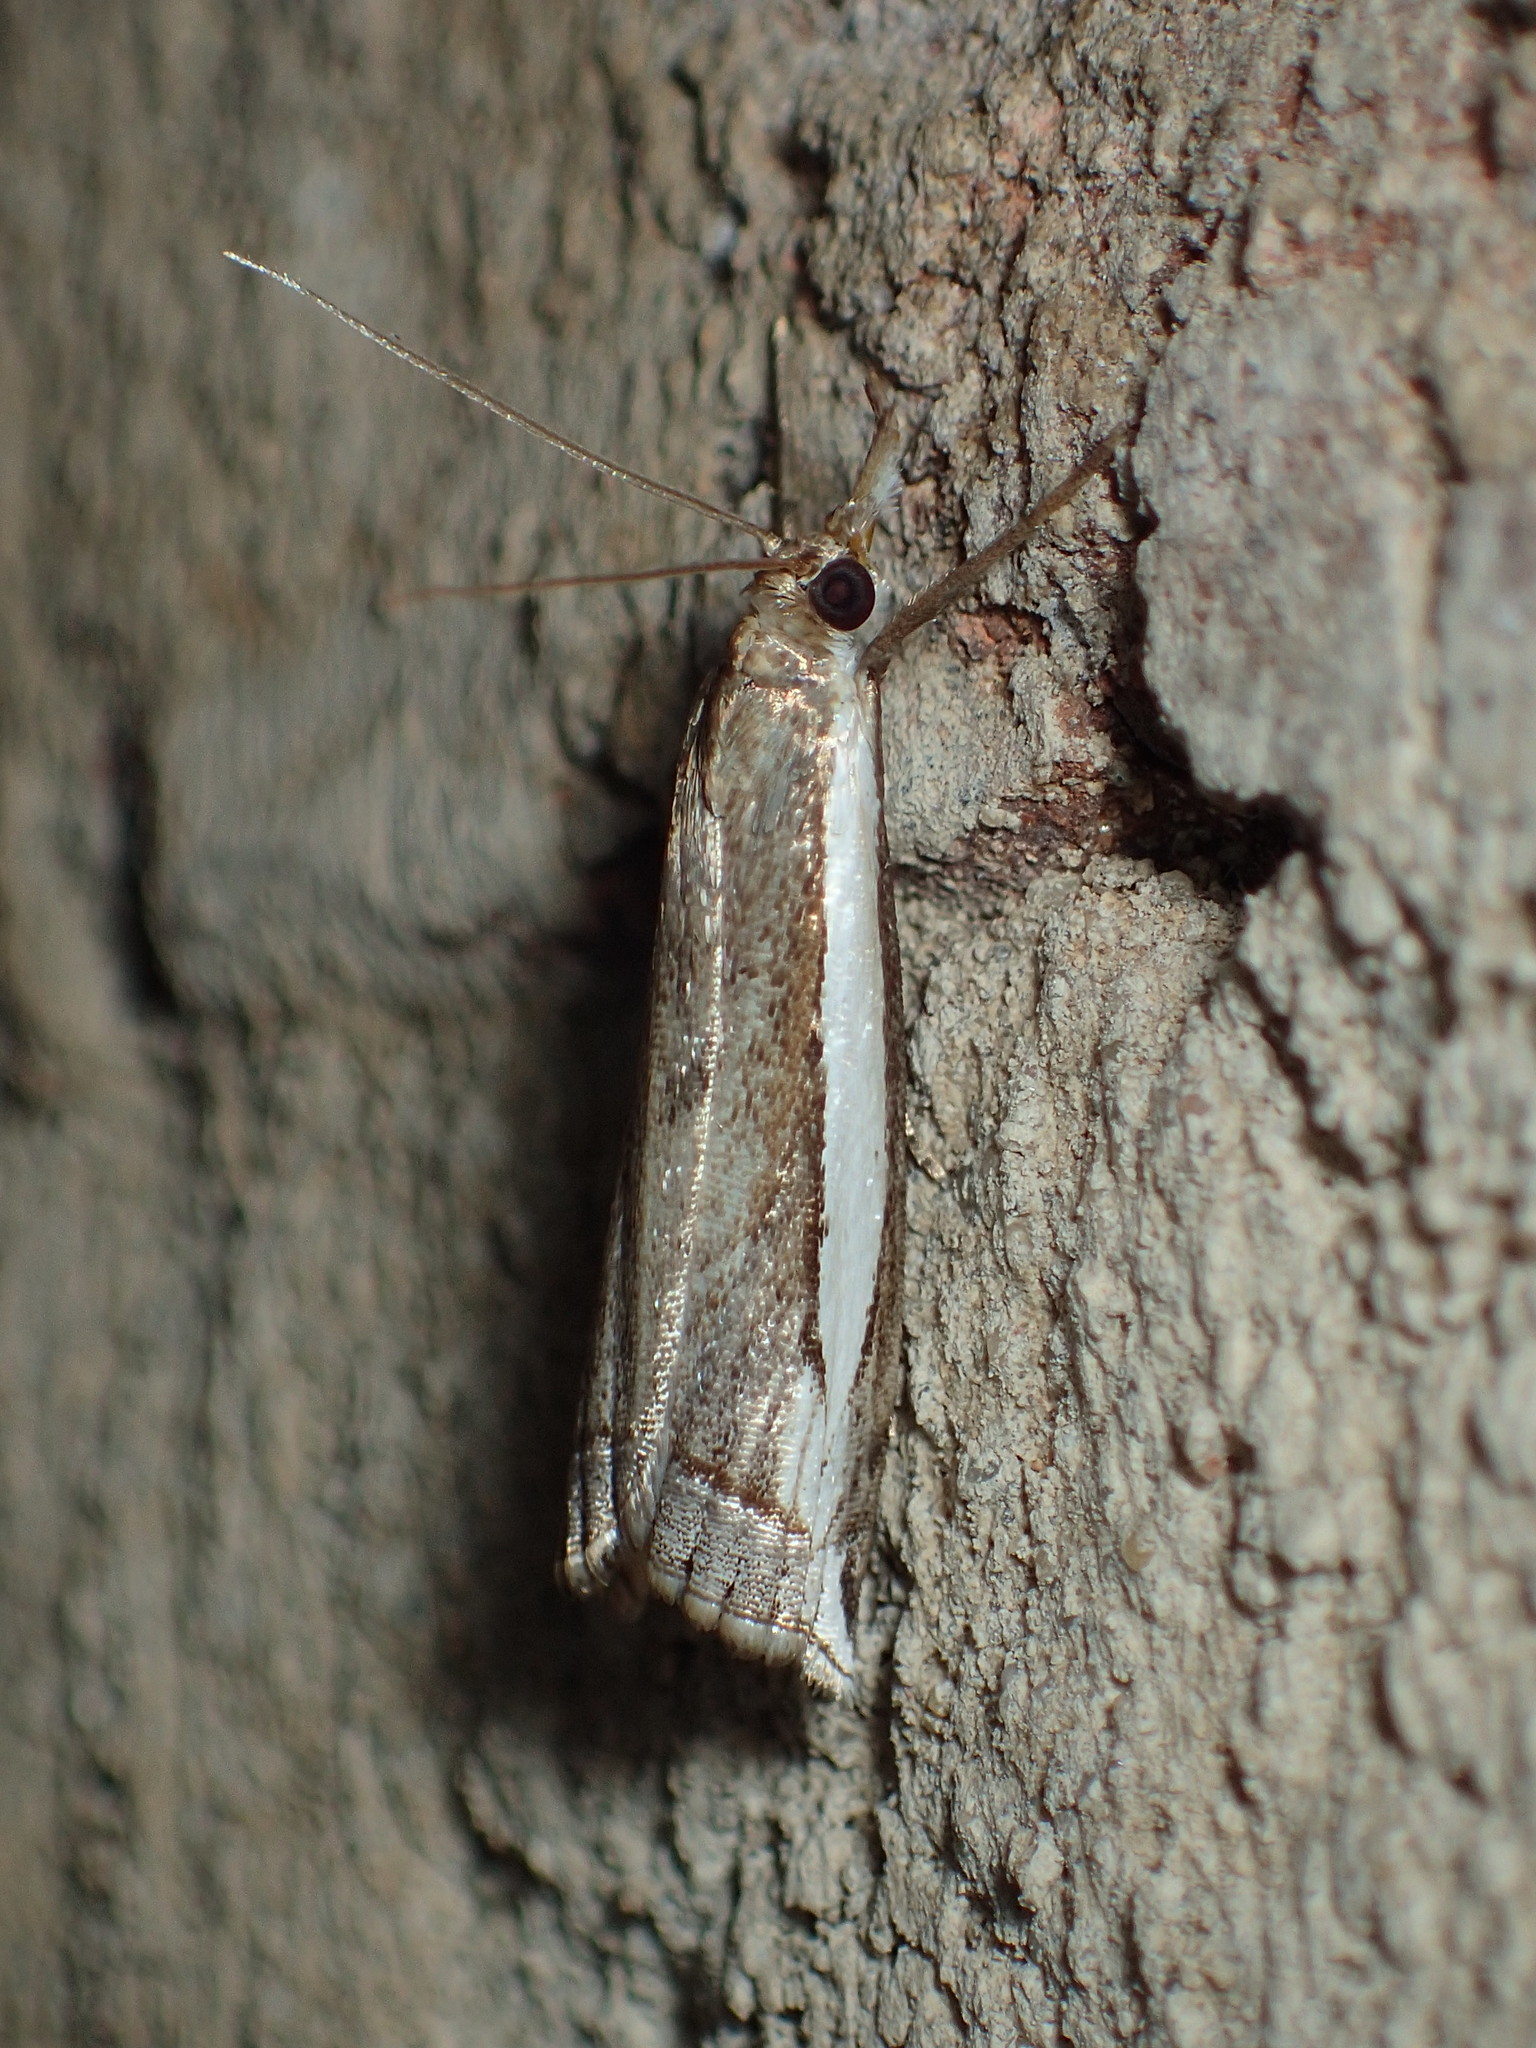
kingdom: Animalia
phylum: Arthropoda
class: Insecta
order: Lepidoptera
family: Crambidae
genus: Raphiptera
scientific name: Raphiptera argillaceellus
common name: Diminutive grass-veneer
